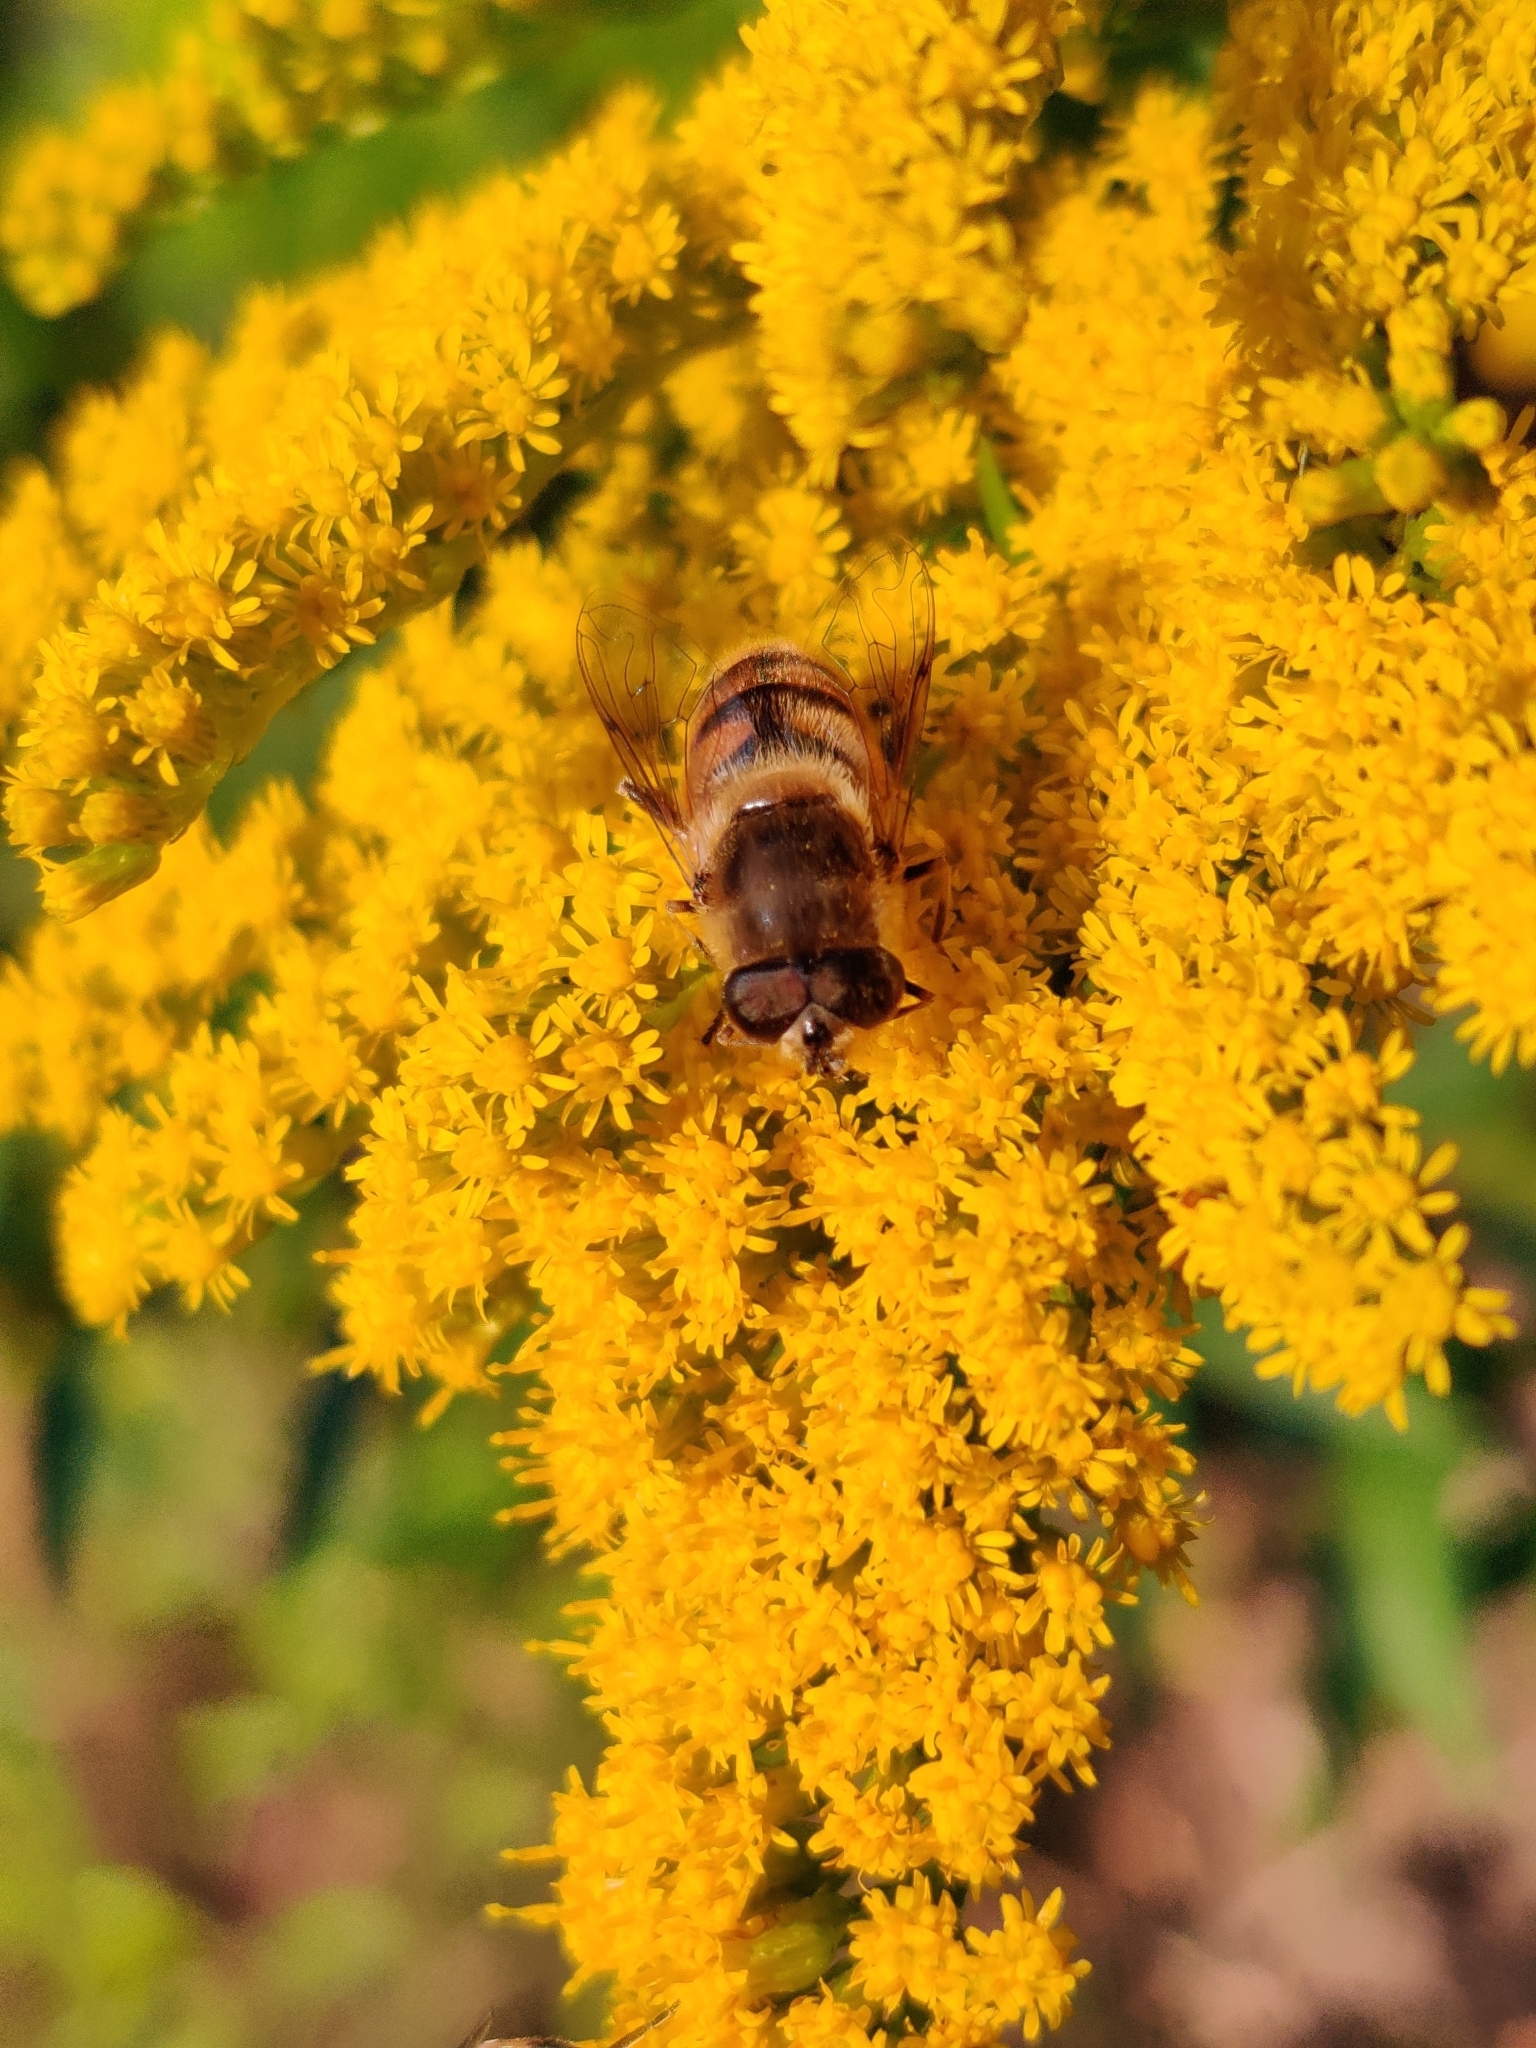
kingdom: Animalia
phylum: Arthropoda
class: Insecta
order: Diptera
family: Syrphidae
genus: Eristalis
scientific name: Eristalis tenax
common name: Drone fly
